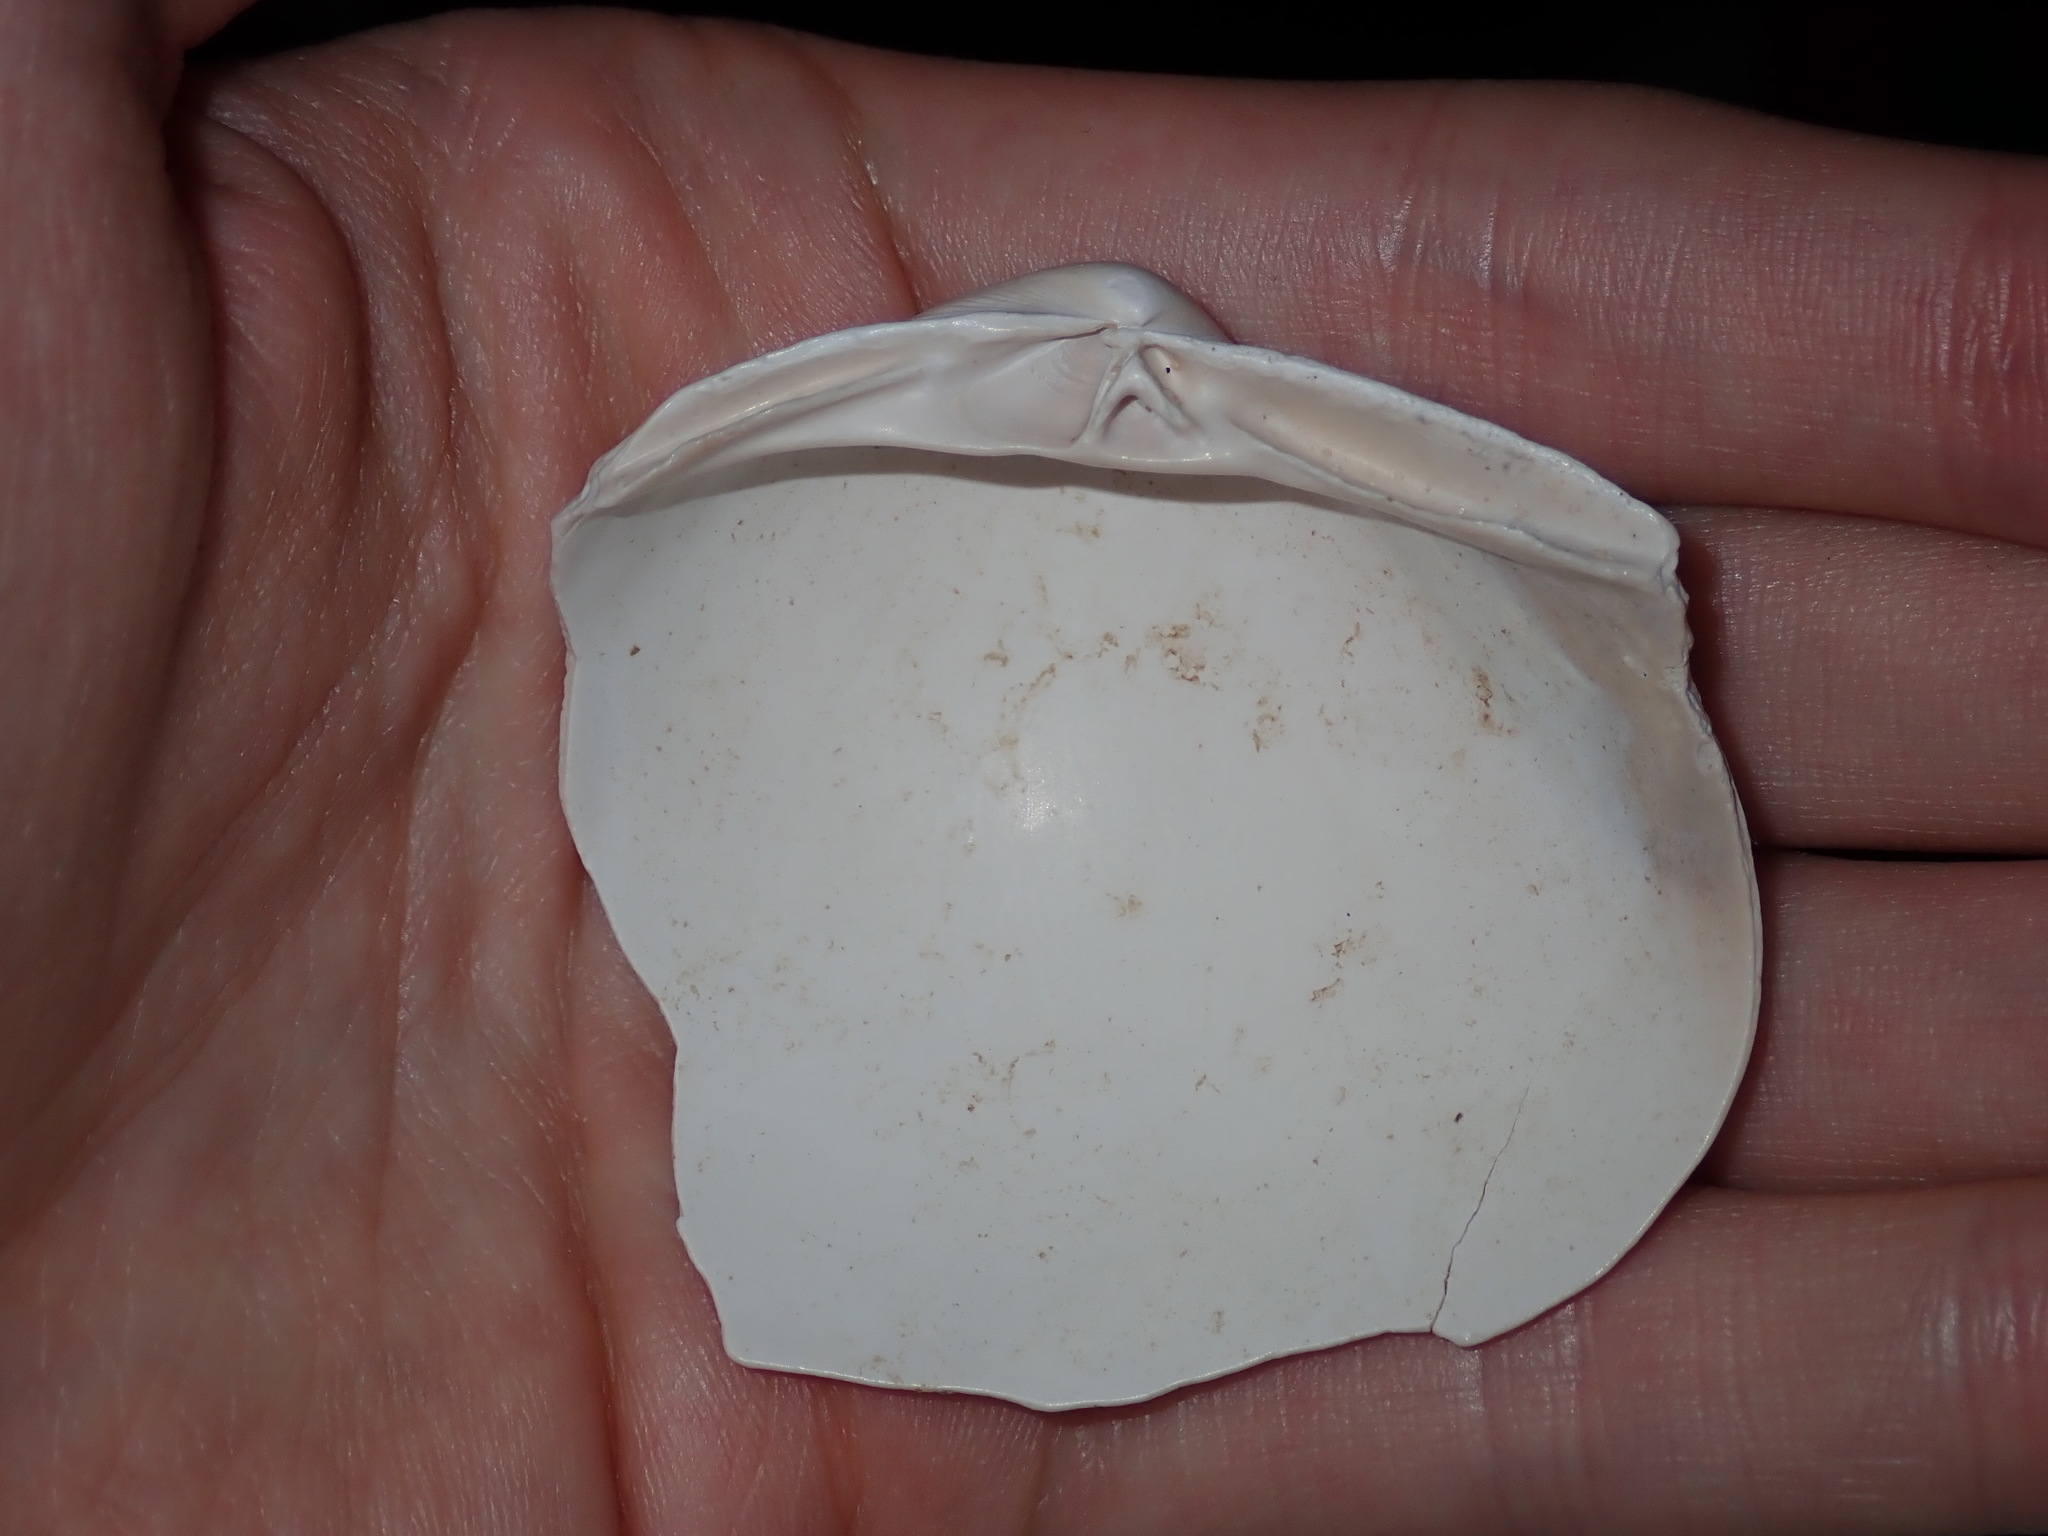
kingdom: Animalia
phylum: Mollusca
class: Bivalvia
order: Venerida
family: Mactridae
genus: Mactra
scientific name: Mactra eximia
